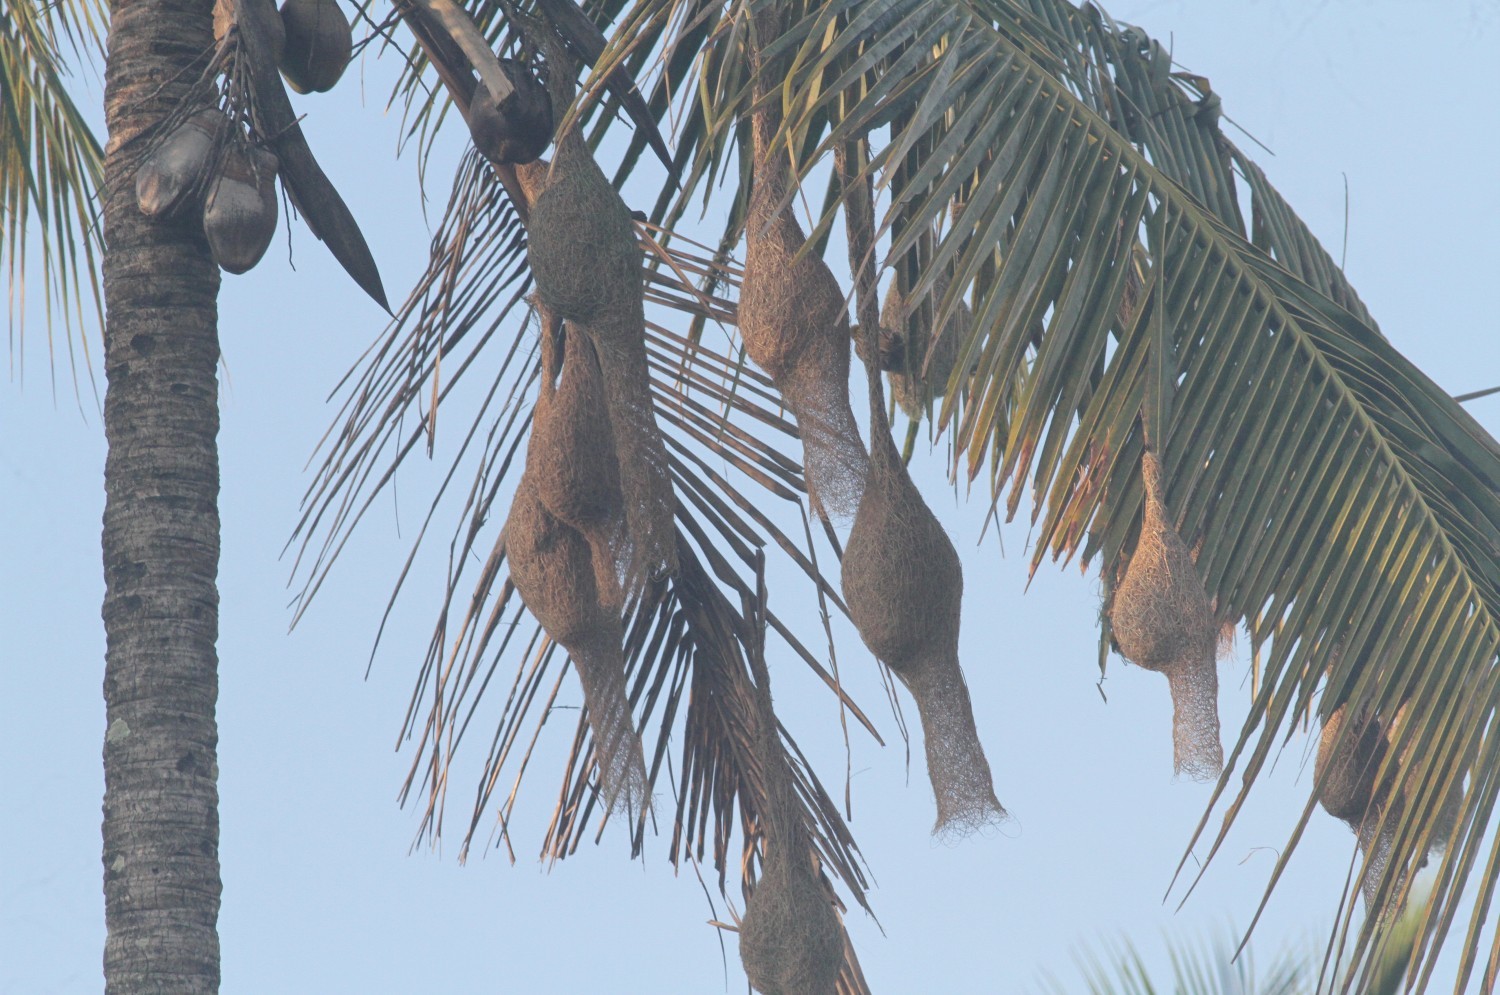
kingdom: Animalia
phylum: Chordata
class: Aves
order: Passeriformes
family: Ploceidae
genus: Ploceus
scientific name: Ploceus philippinus
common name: Baya weaver
